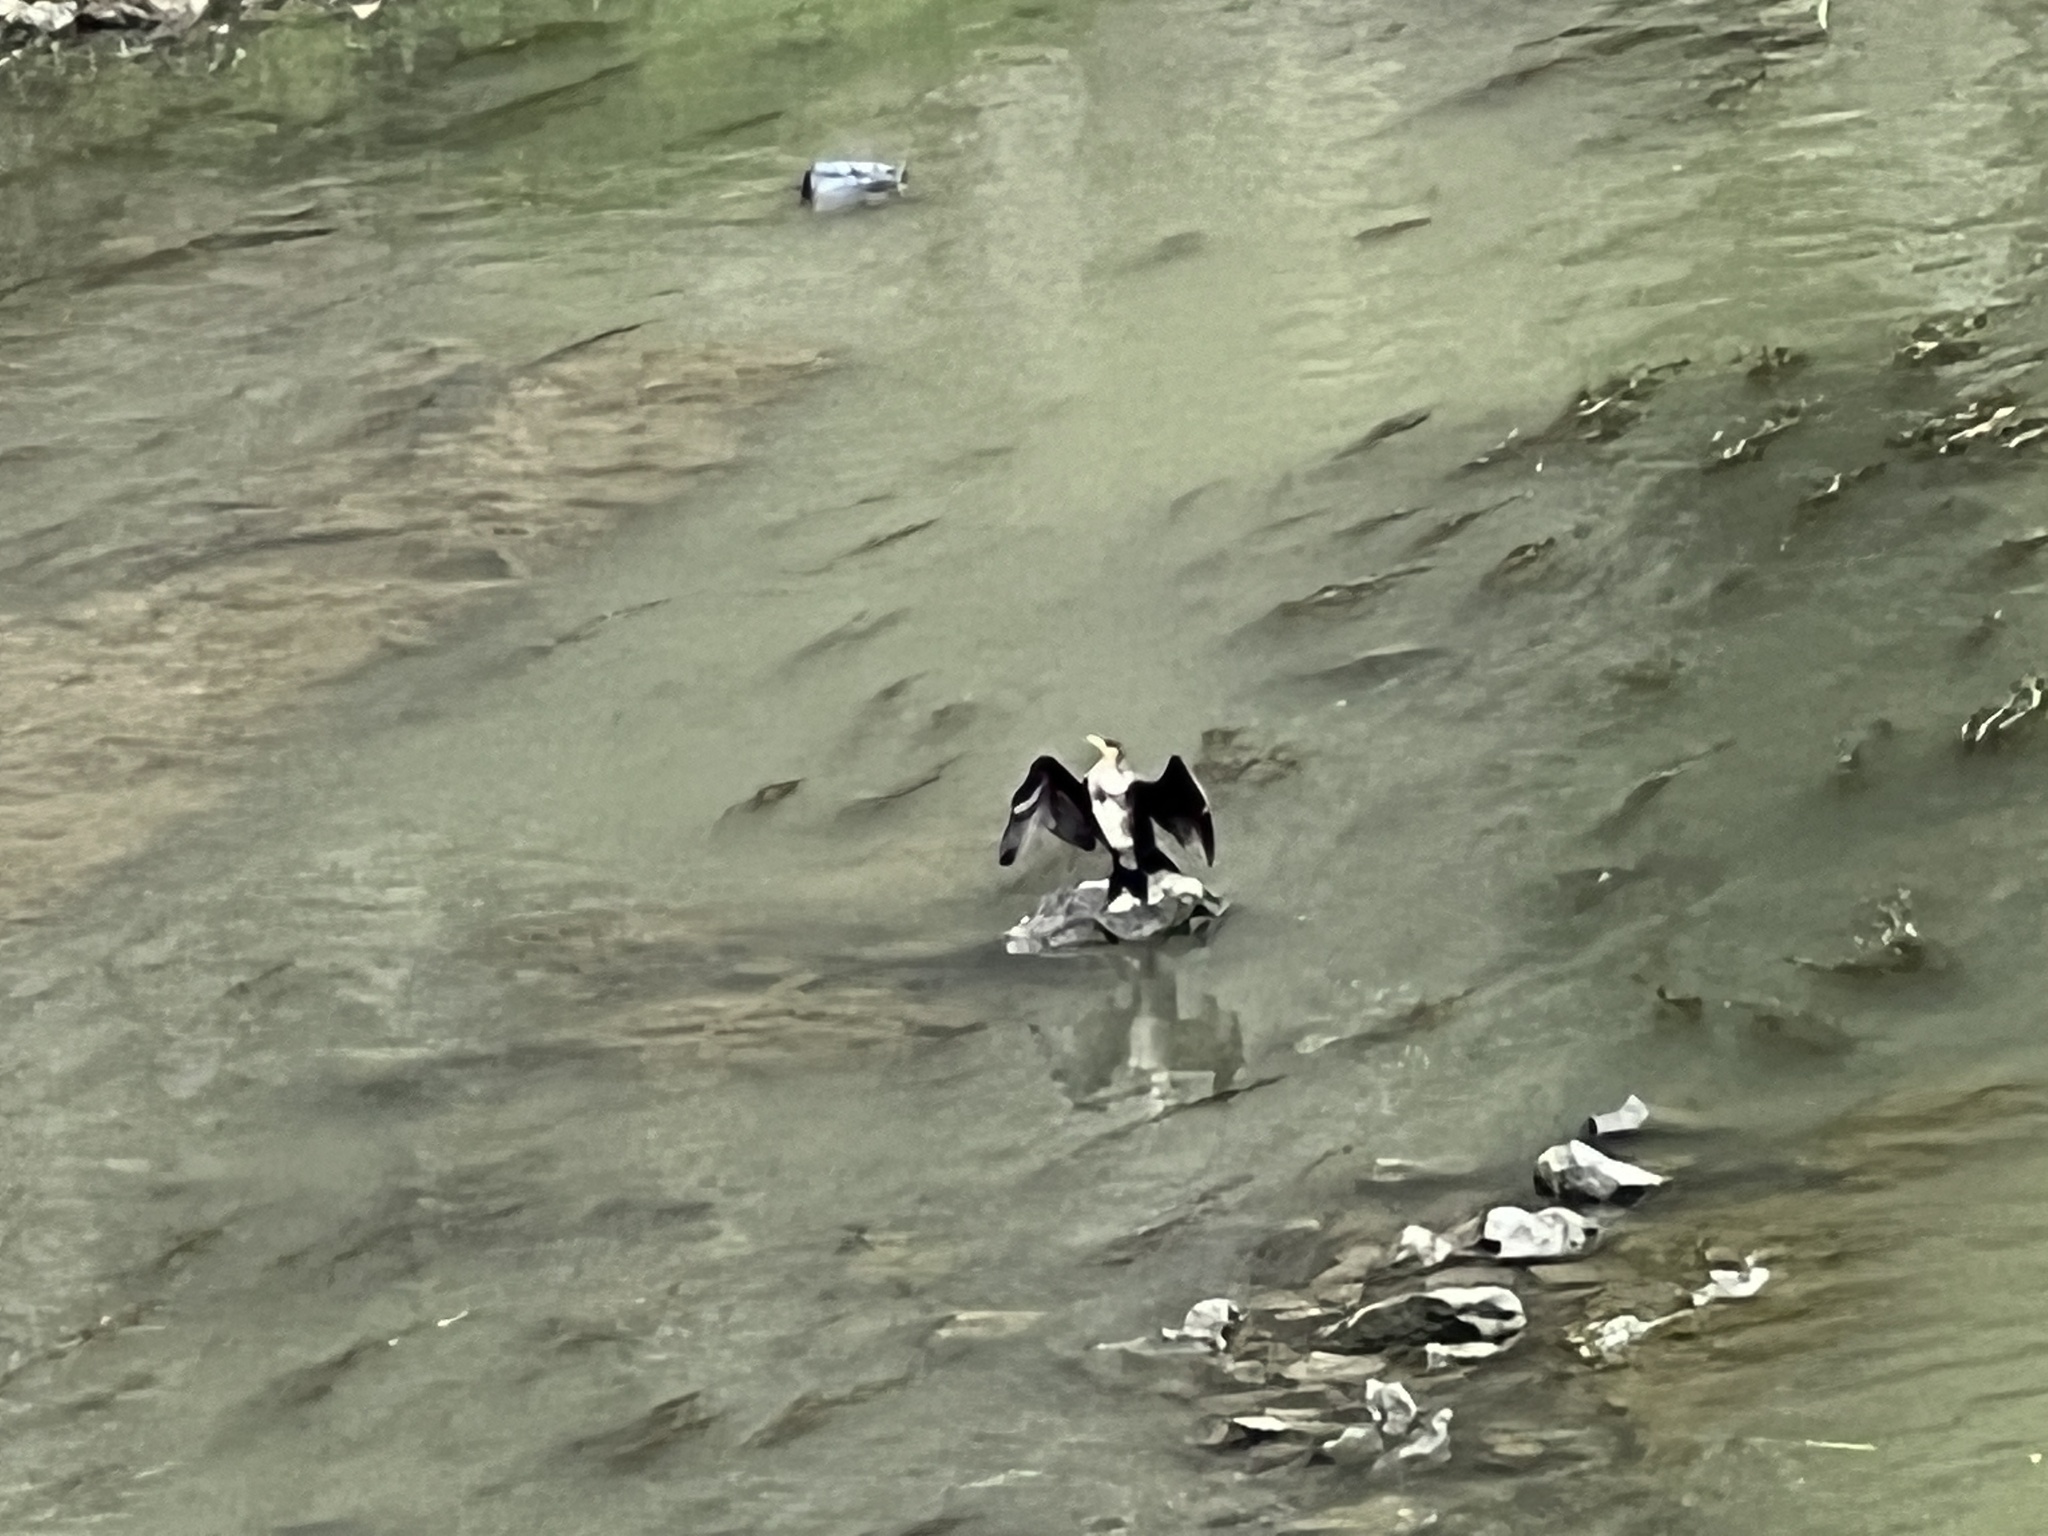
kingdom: Animalia
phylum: Chordata
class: Aves
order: Suliformes
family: Phalacrocoracidae
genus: Phalacrocorax
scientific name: Phalacrocorax carbo
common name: Great cormorant
